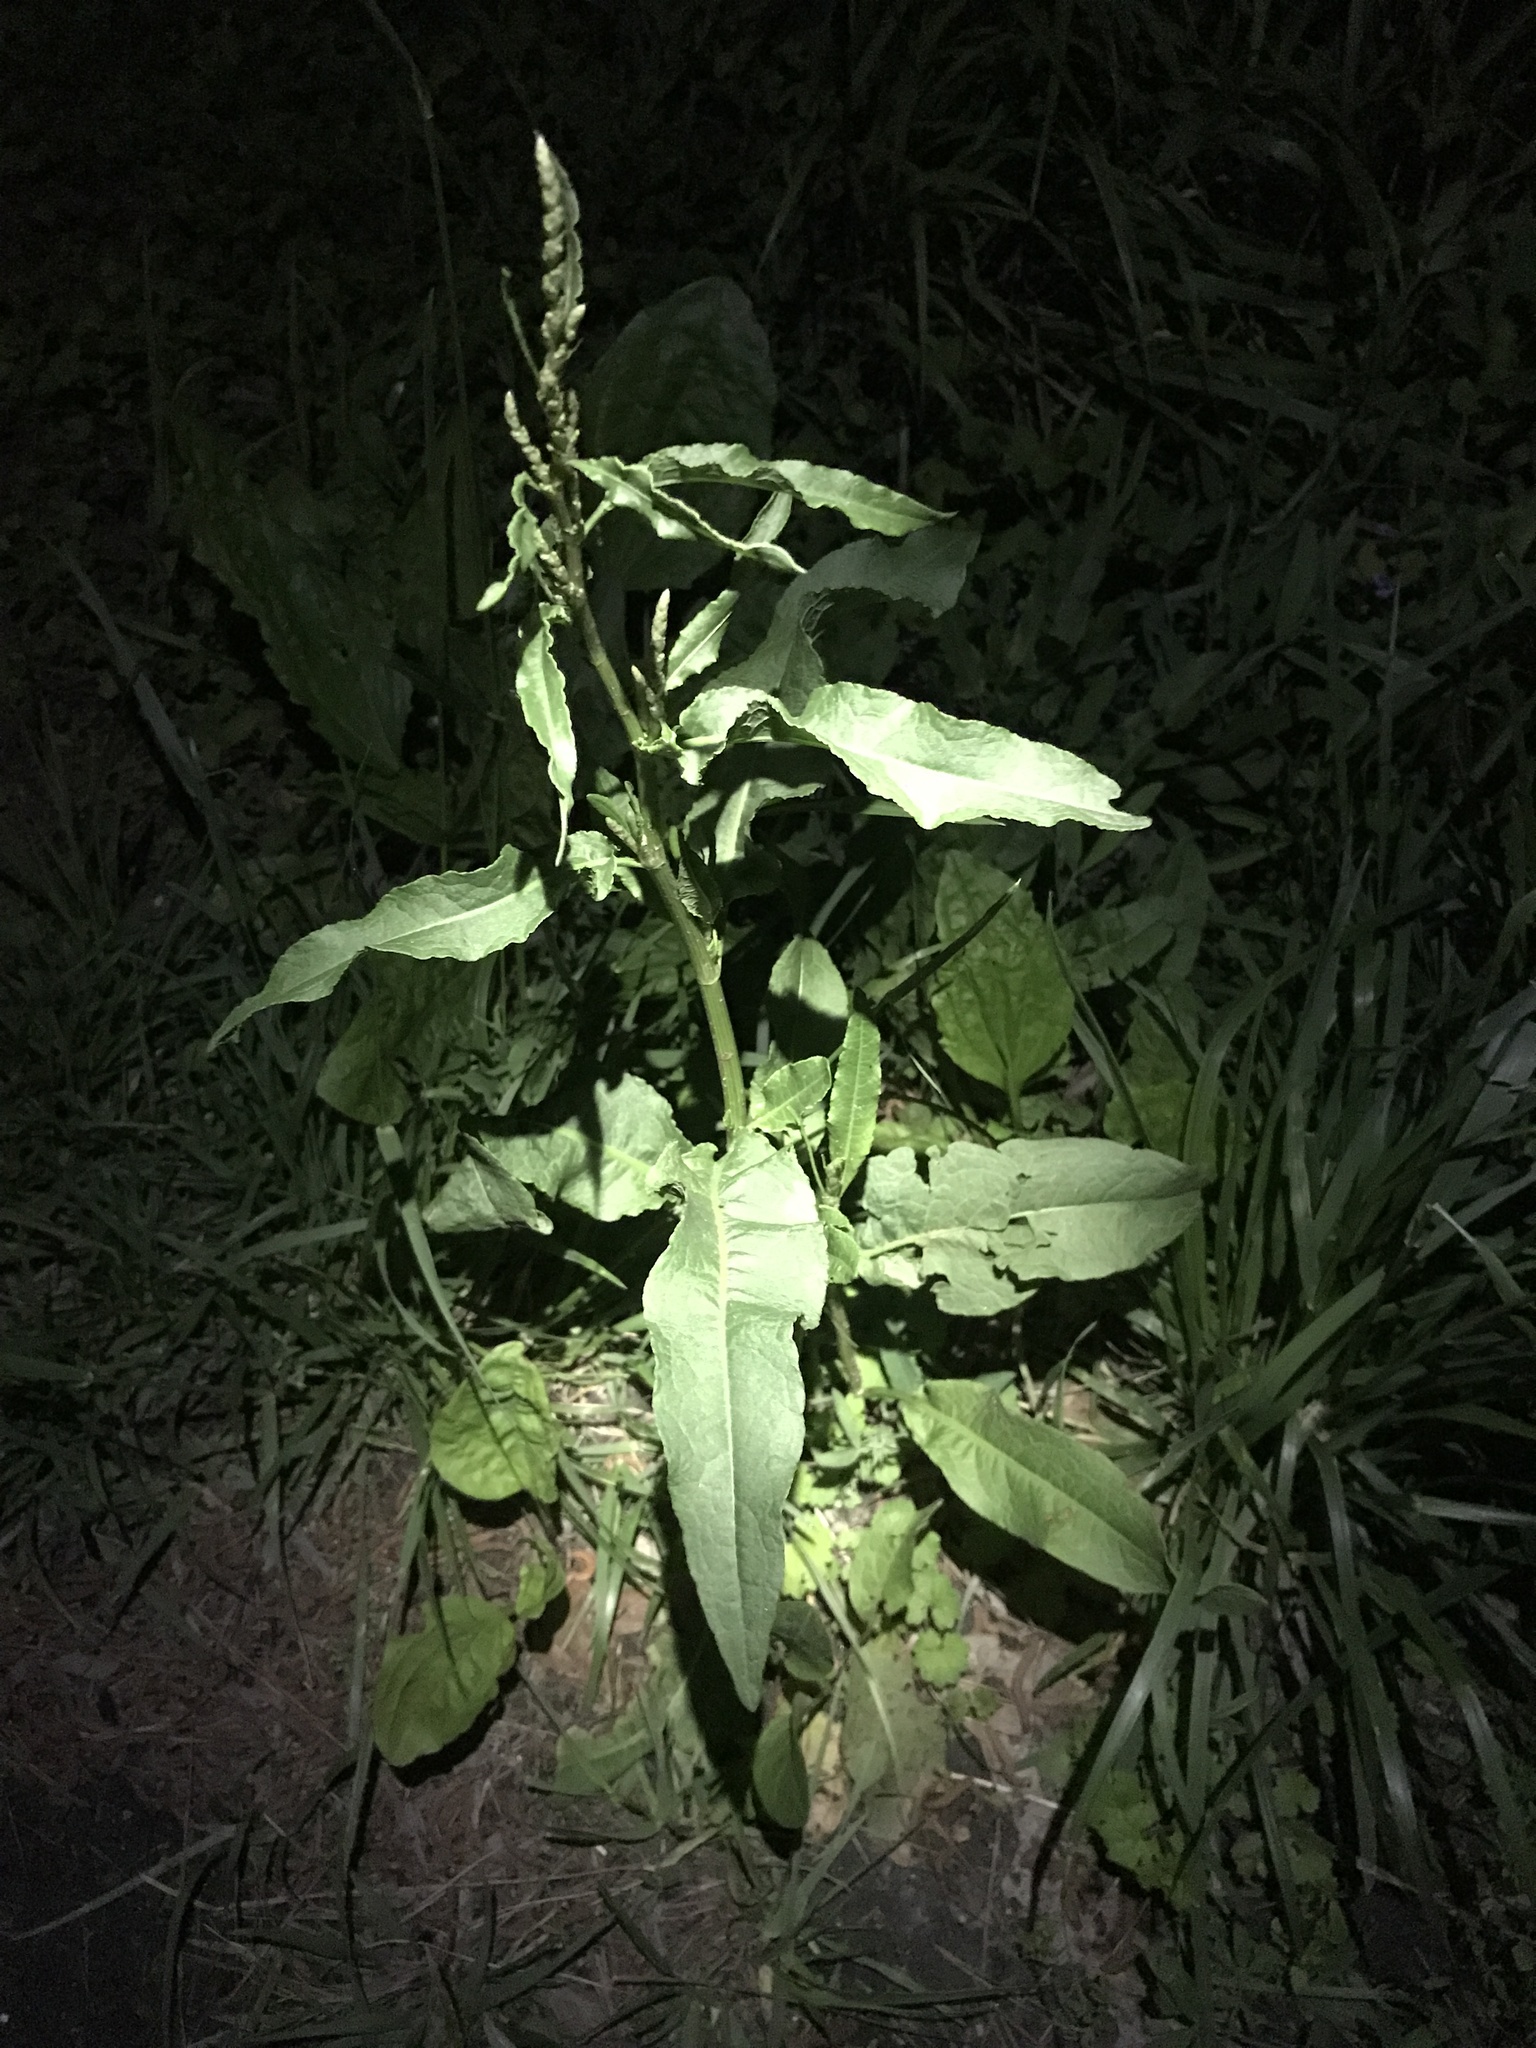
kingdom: Plantae
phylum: Tracheophyta
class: Magnoliopsida
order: Caryophyllales
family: Polygonaceae
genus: Rumex
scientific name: Rumex crispus
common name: Curled dock
